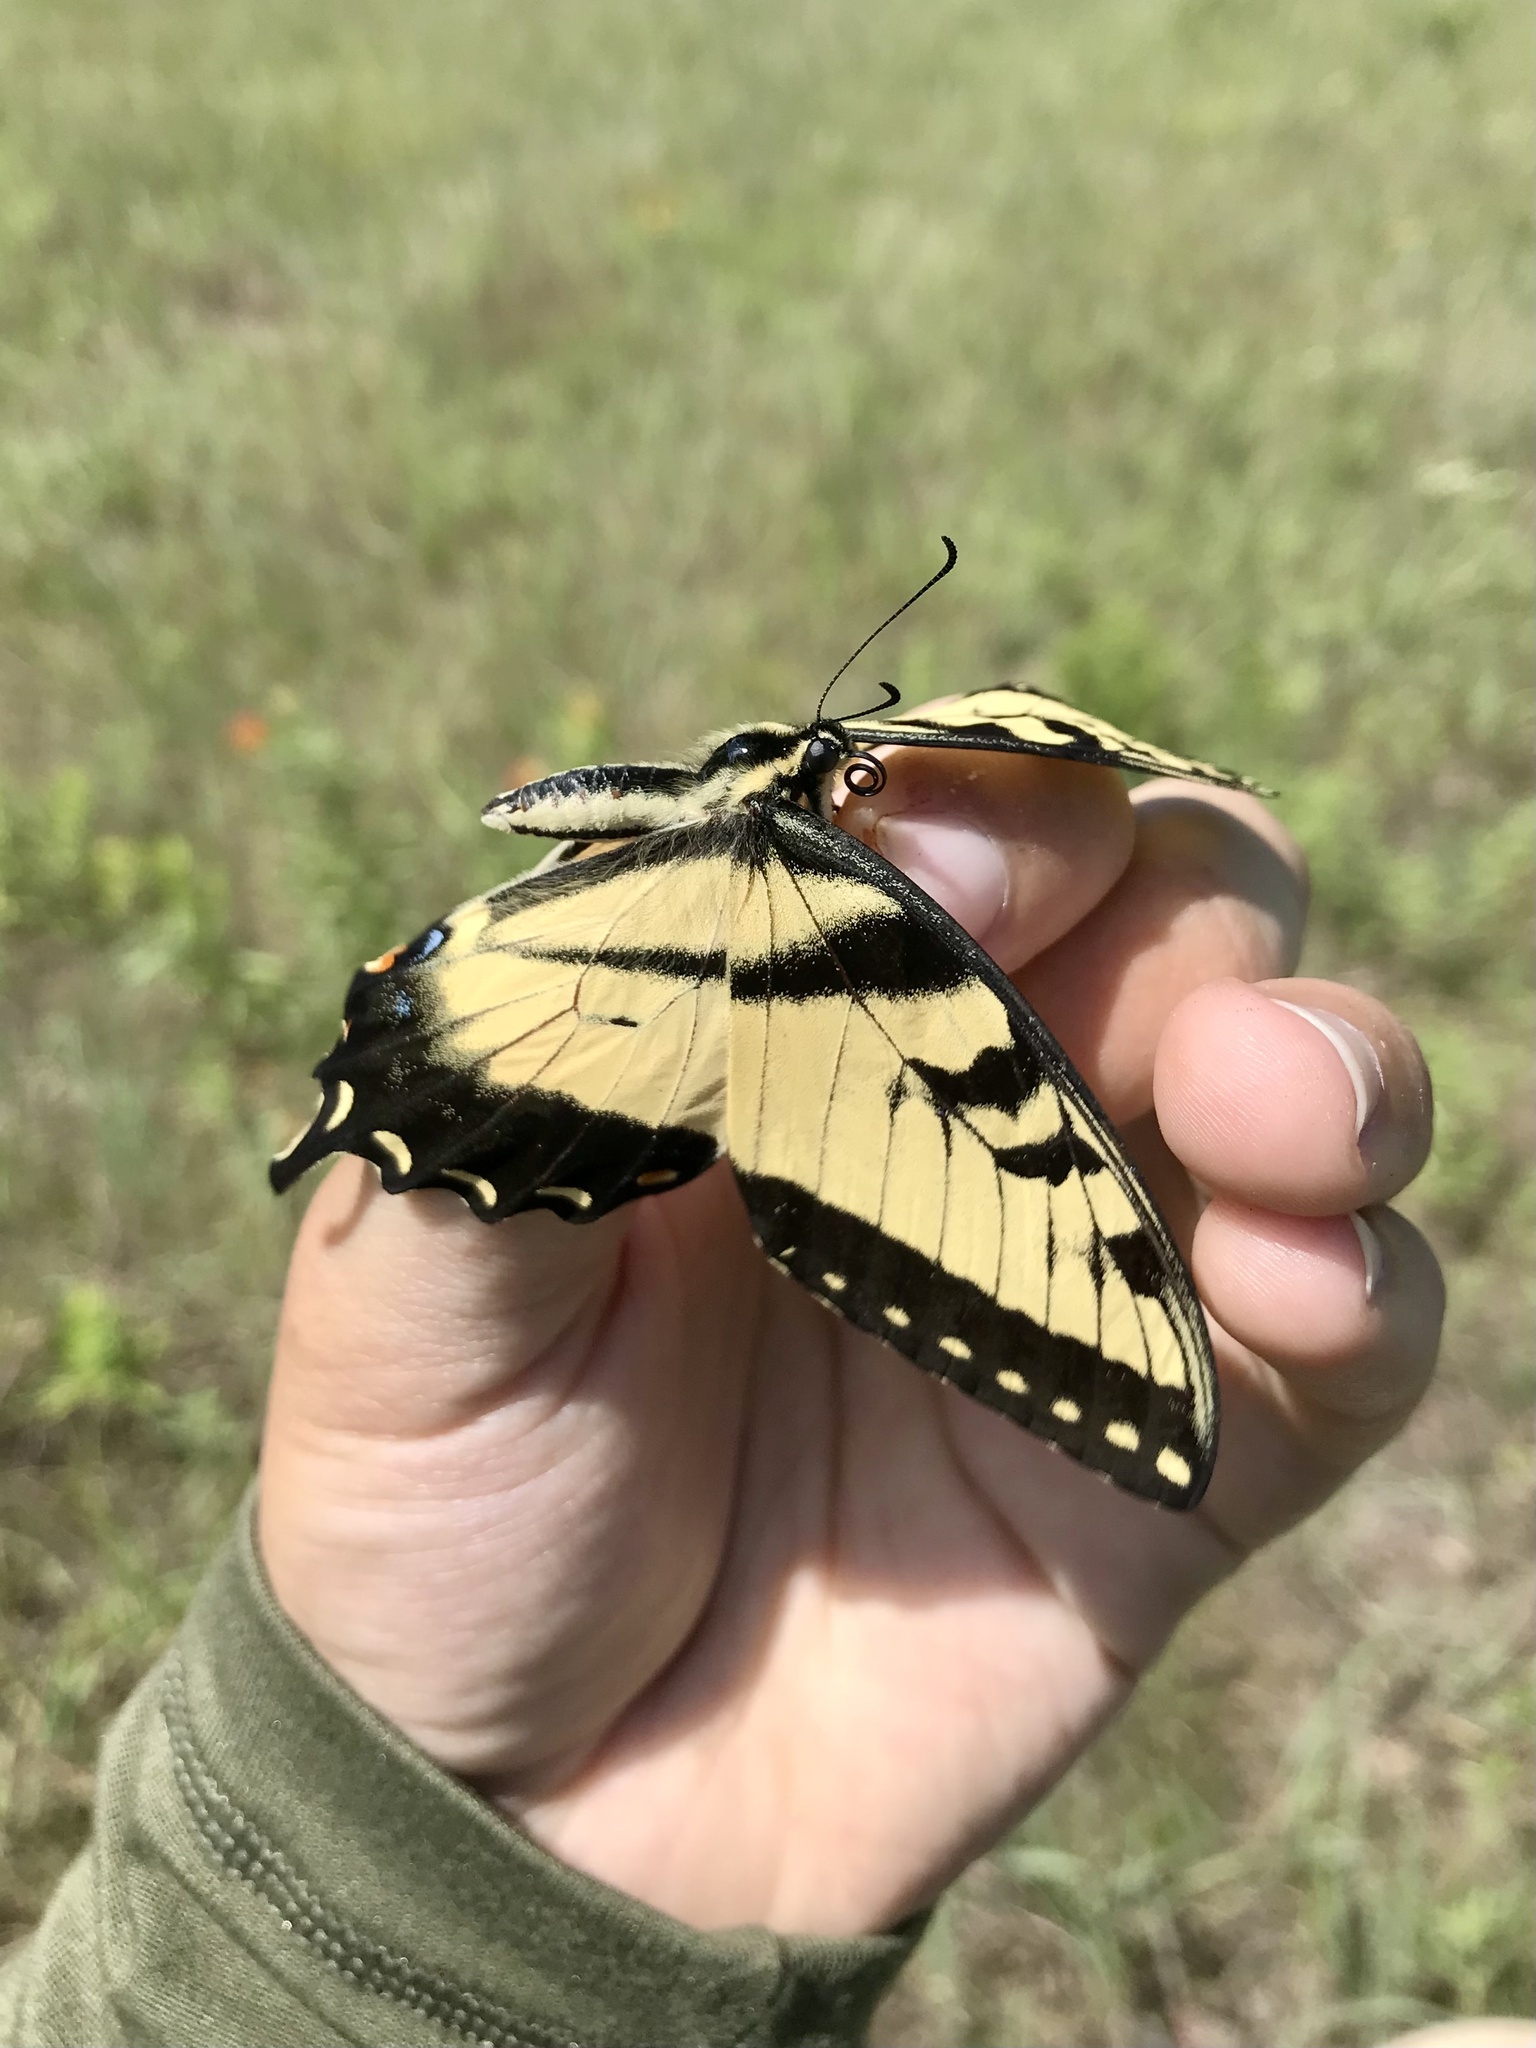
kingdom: Animalia
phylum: Arthropoda
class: Insecta
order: Lepidoptera
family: Papilionidae
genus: Papilio
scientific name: Papilio glaucus
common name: Tiger swallowtail
